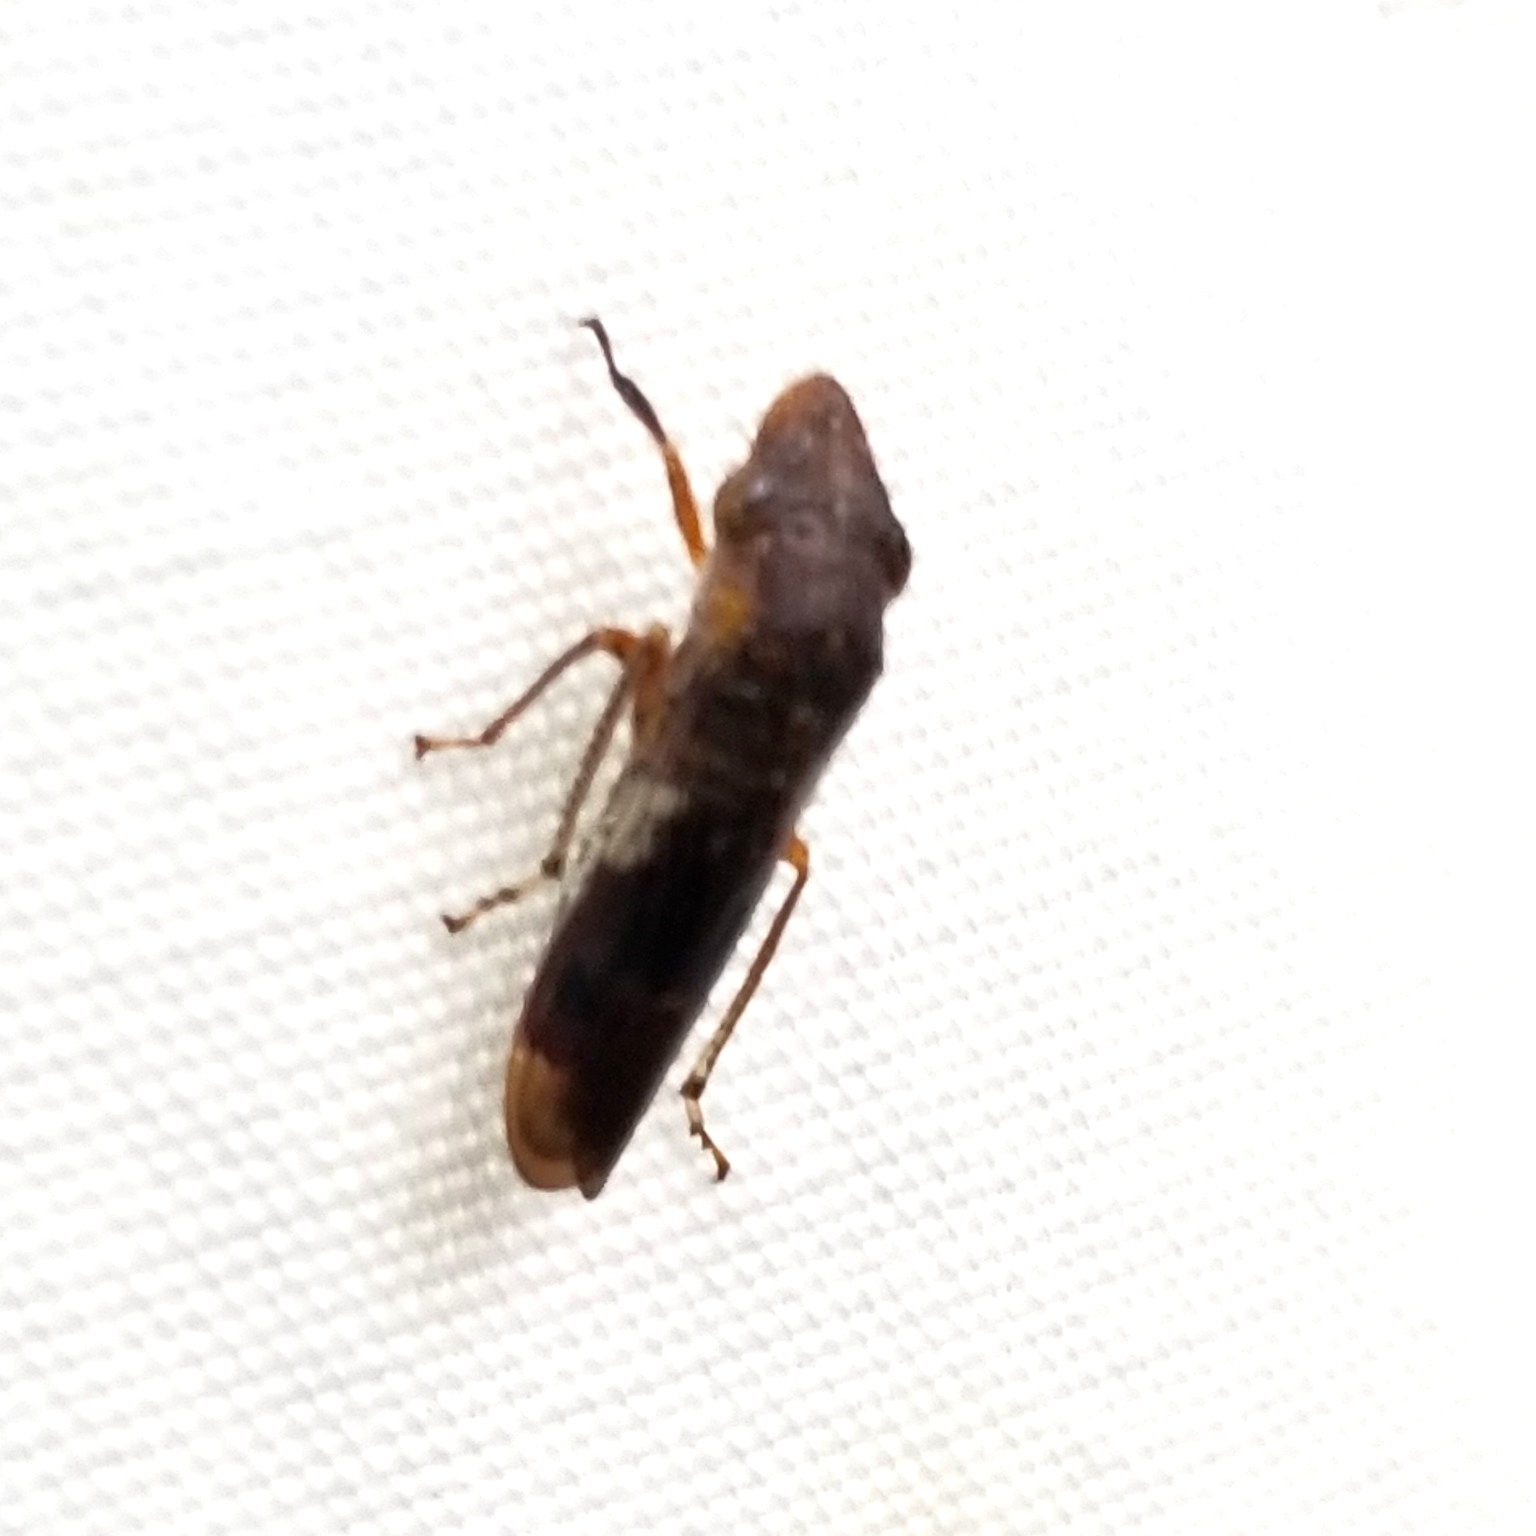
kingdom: Animalia
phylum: Arthropoda
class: Insecta
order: Hemiptera
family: Cicadellidae
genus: Homalodisca
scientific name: Homalodisca vitripennis
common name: Glassy-winged sharpshooter
